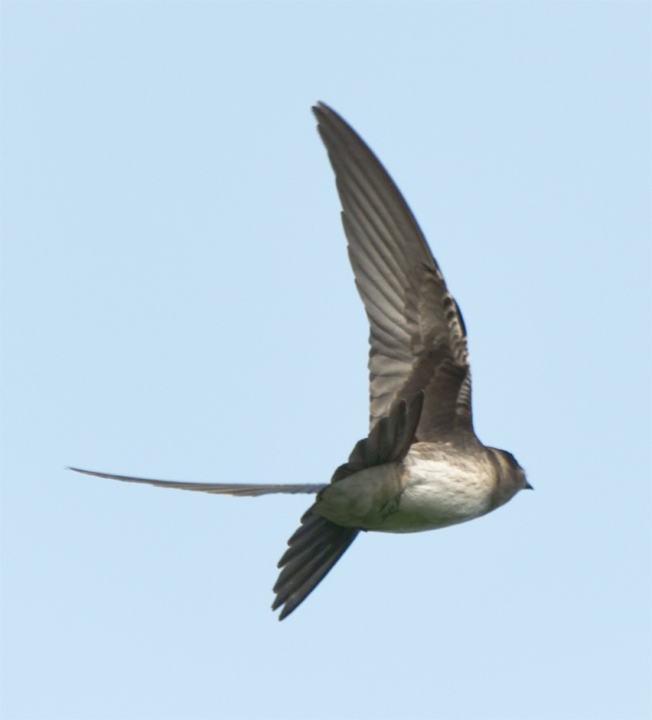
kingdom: Animalia
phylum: Chordata
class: Aves
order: Passeriformes
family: Hirundinidae
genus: Progne
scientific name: Progne subis
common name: Purple martin
